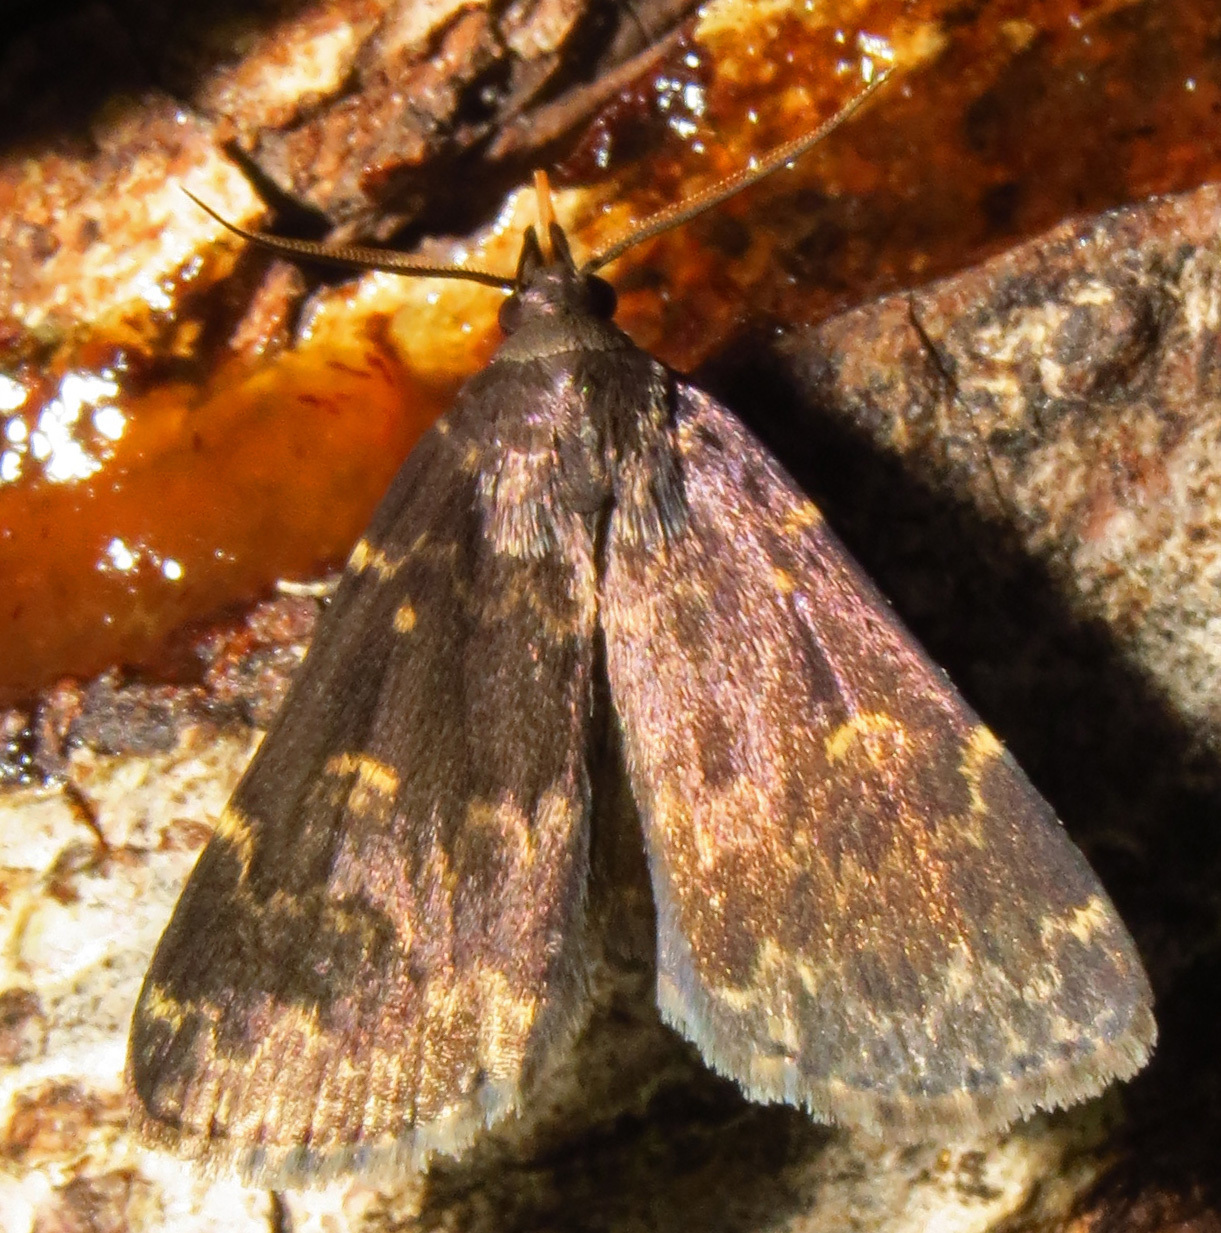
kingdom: Animalia
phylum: Arthropoda
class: Insecta
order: Lepidoptera
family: Erebidae
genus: Idia
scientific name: Idia lubricalis
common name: Twin-striped tabby
